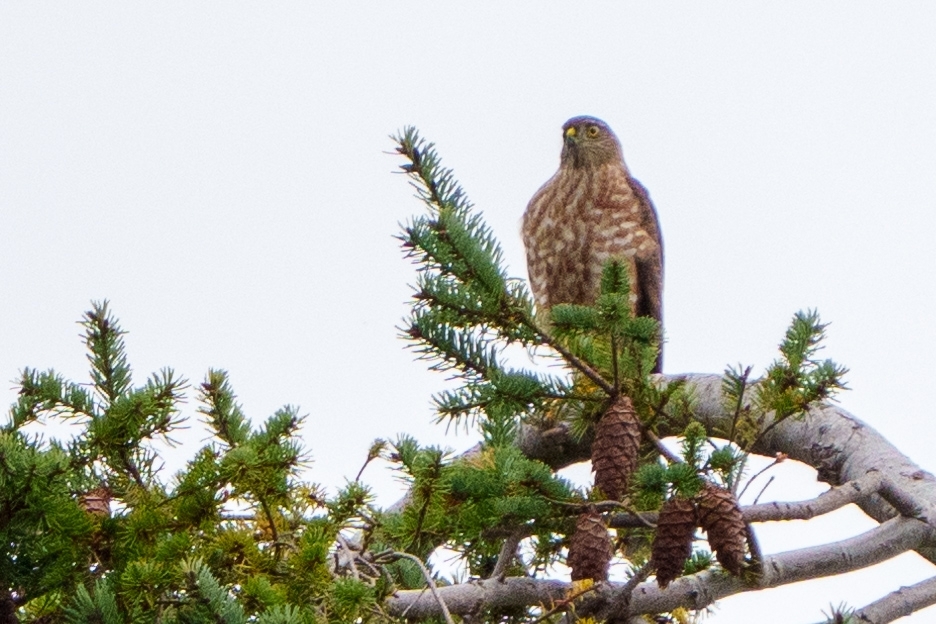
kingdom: Animalia
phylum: Chordata
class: Aves
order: Accipitriformes
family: Accipitridae
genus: Accipiter
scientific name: Accipiter striatus
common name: Sharp-shinned hawk
